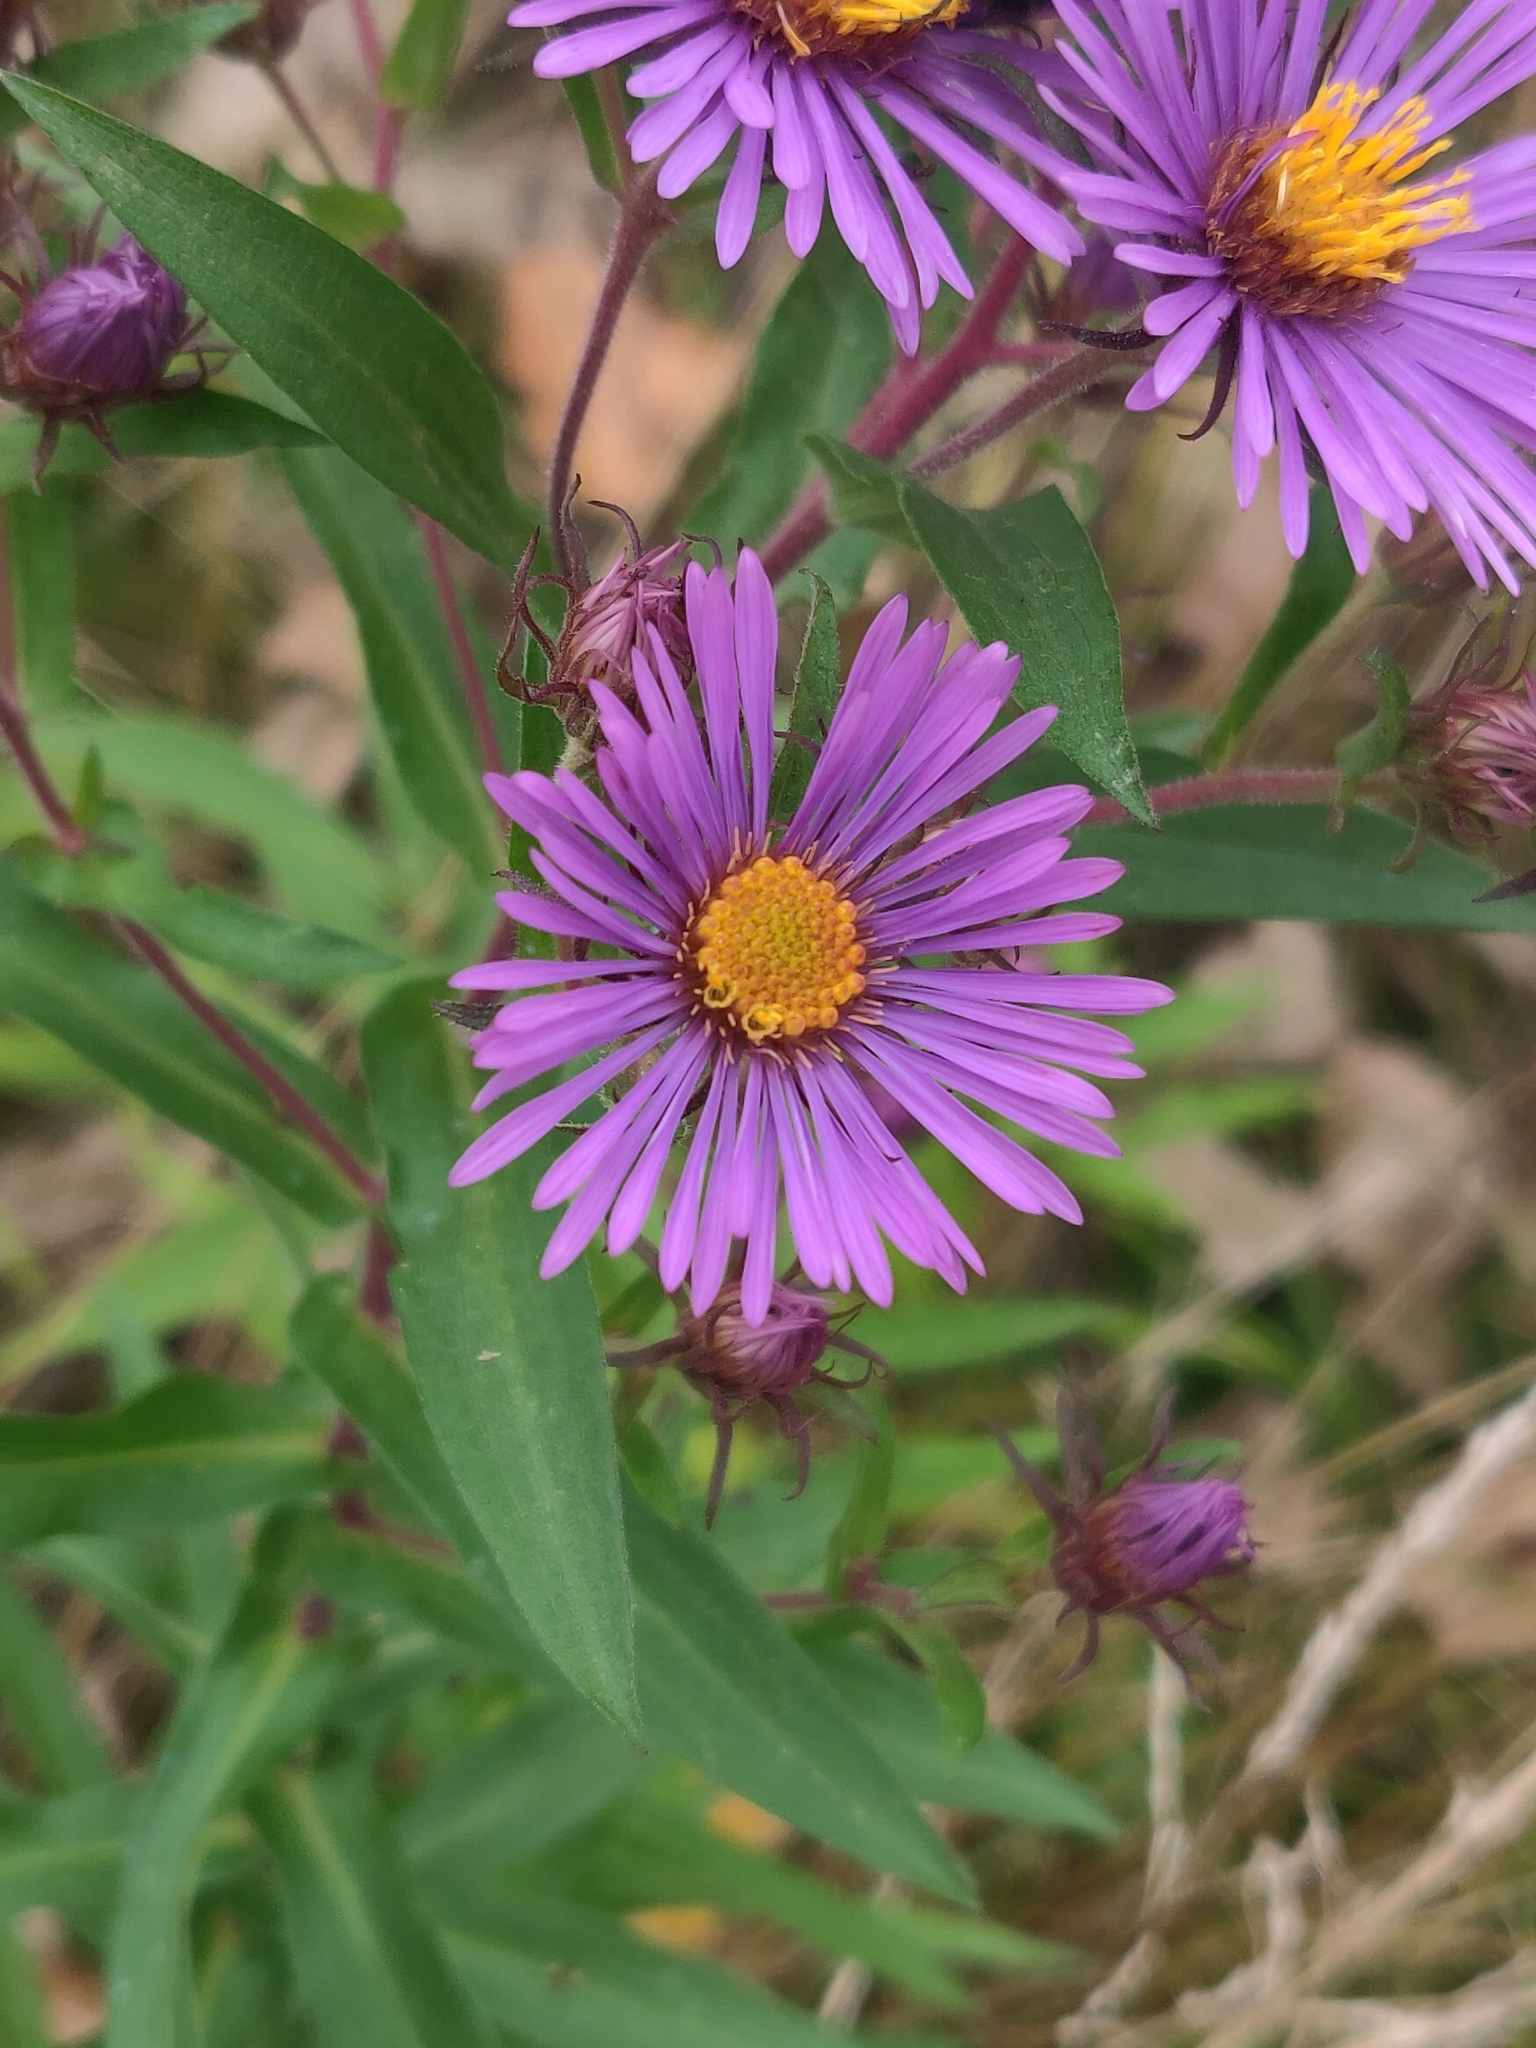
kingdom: Plantae
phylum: Tracheophyta
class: Magnoliopsida
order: Asterales
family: Asteraceae
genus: Symphyotrichum
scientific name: Symphyotrichum novae-angliae
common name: Michaelmas daisy
